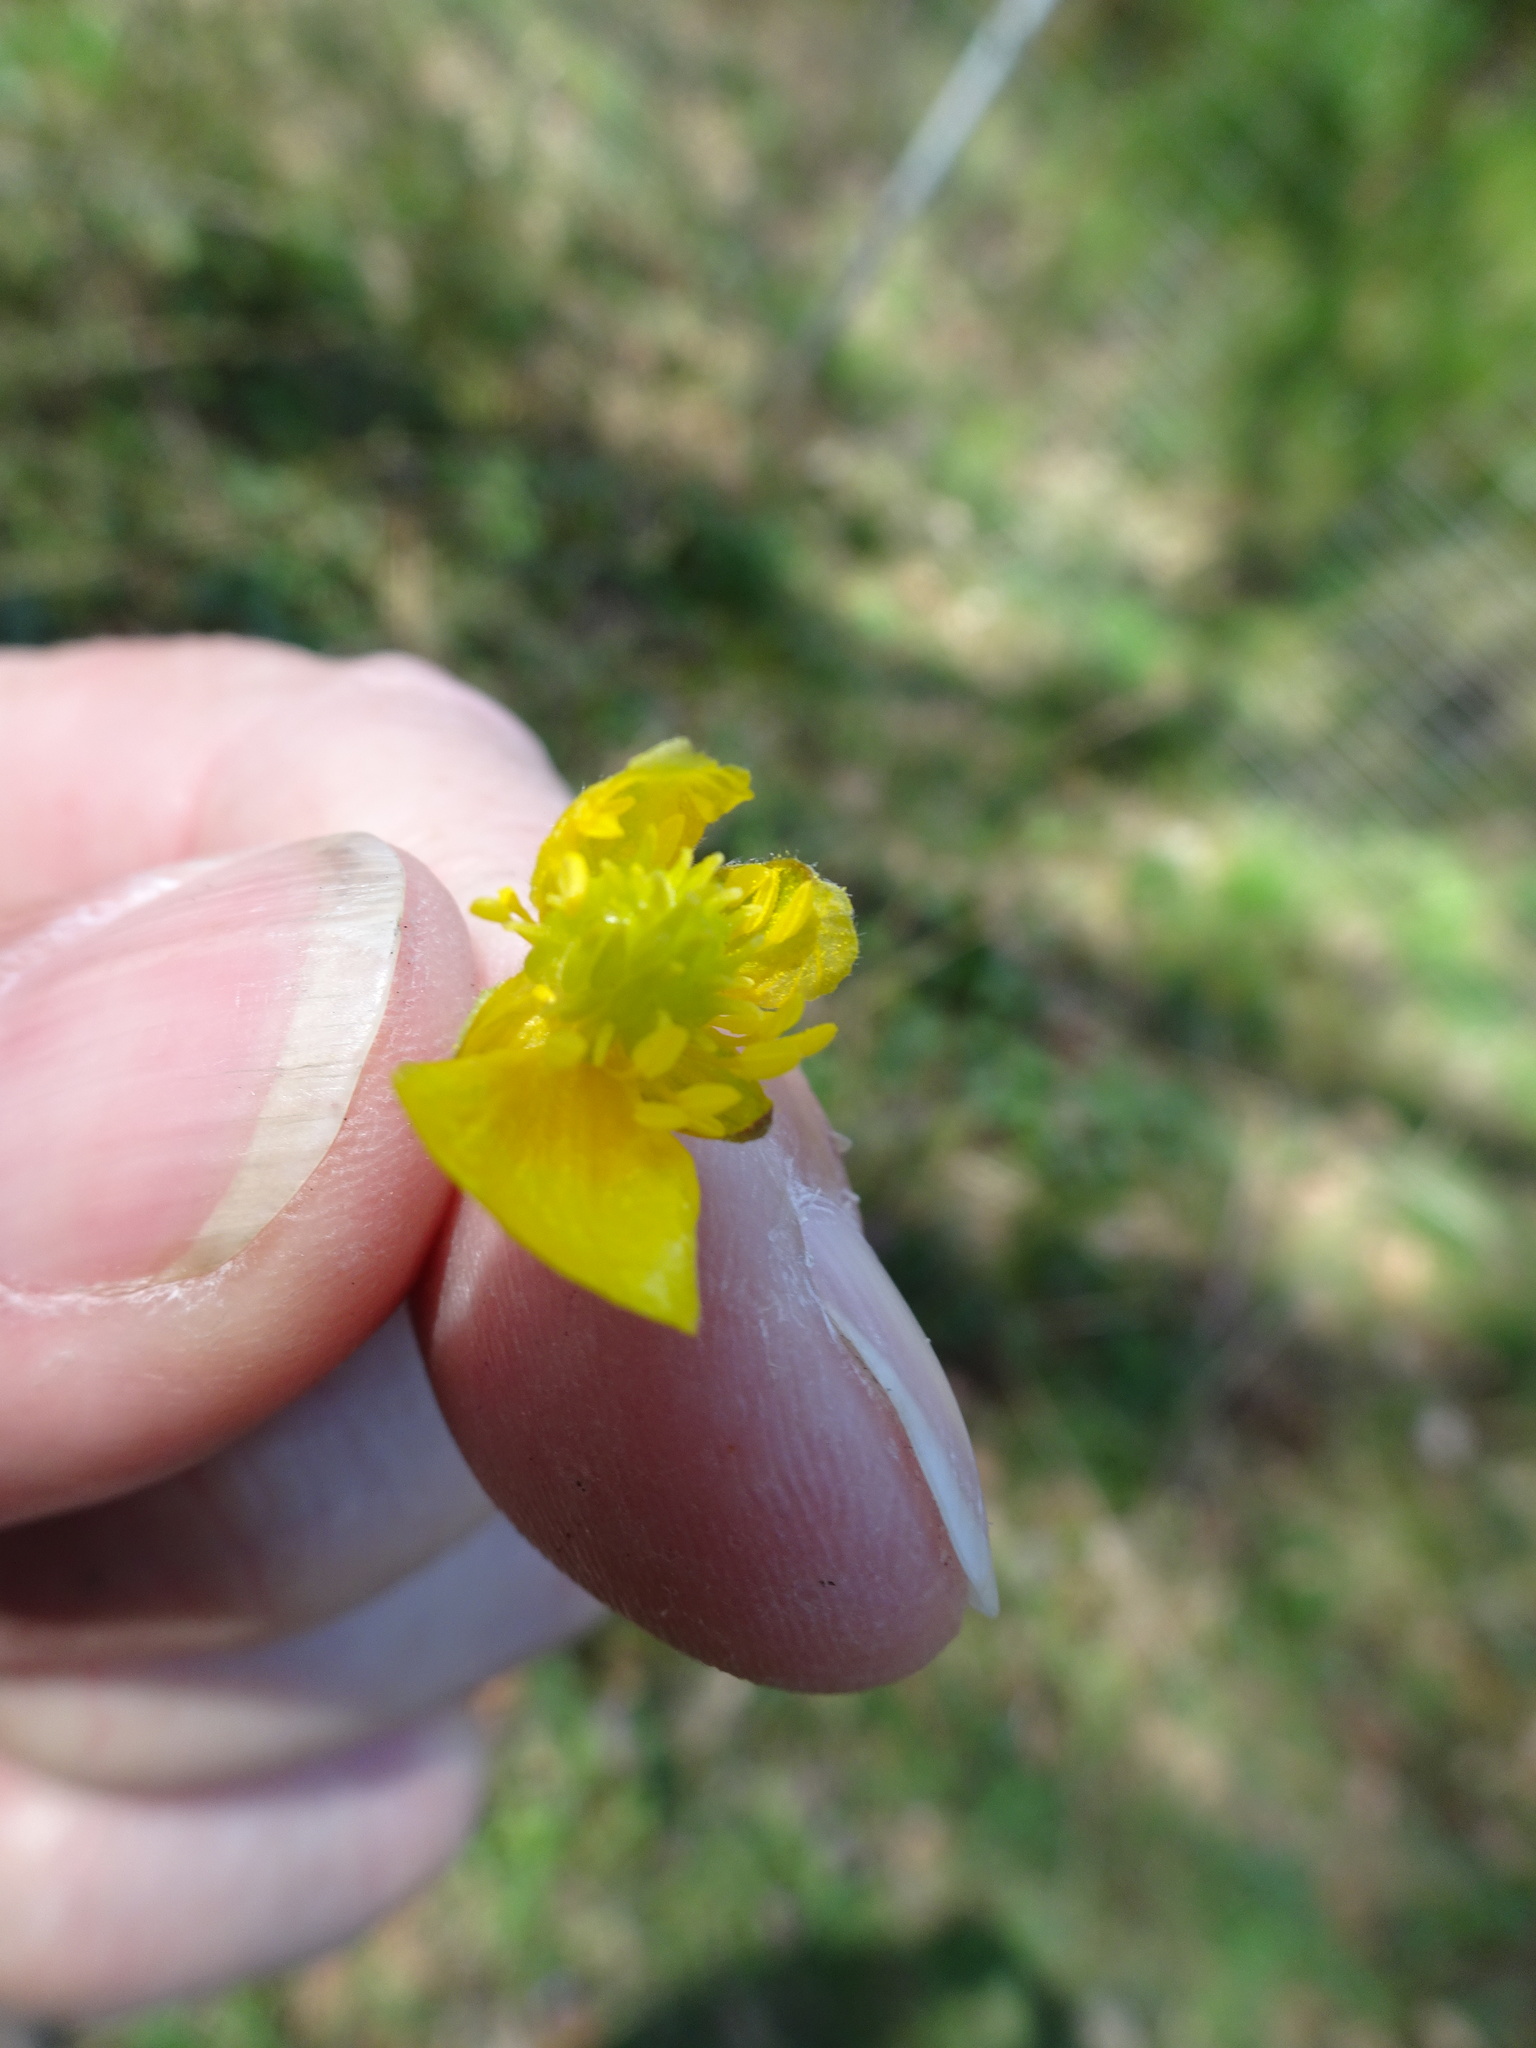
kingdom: Plantae
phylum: Tracheophyta
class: Magnoliopsida
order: Ranunculales
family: Ranunculaceae
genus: Ranunculus
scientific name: Ranunculus auricomus
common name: Goldilocks buttercup
